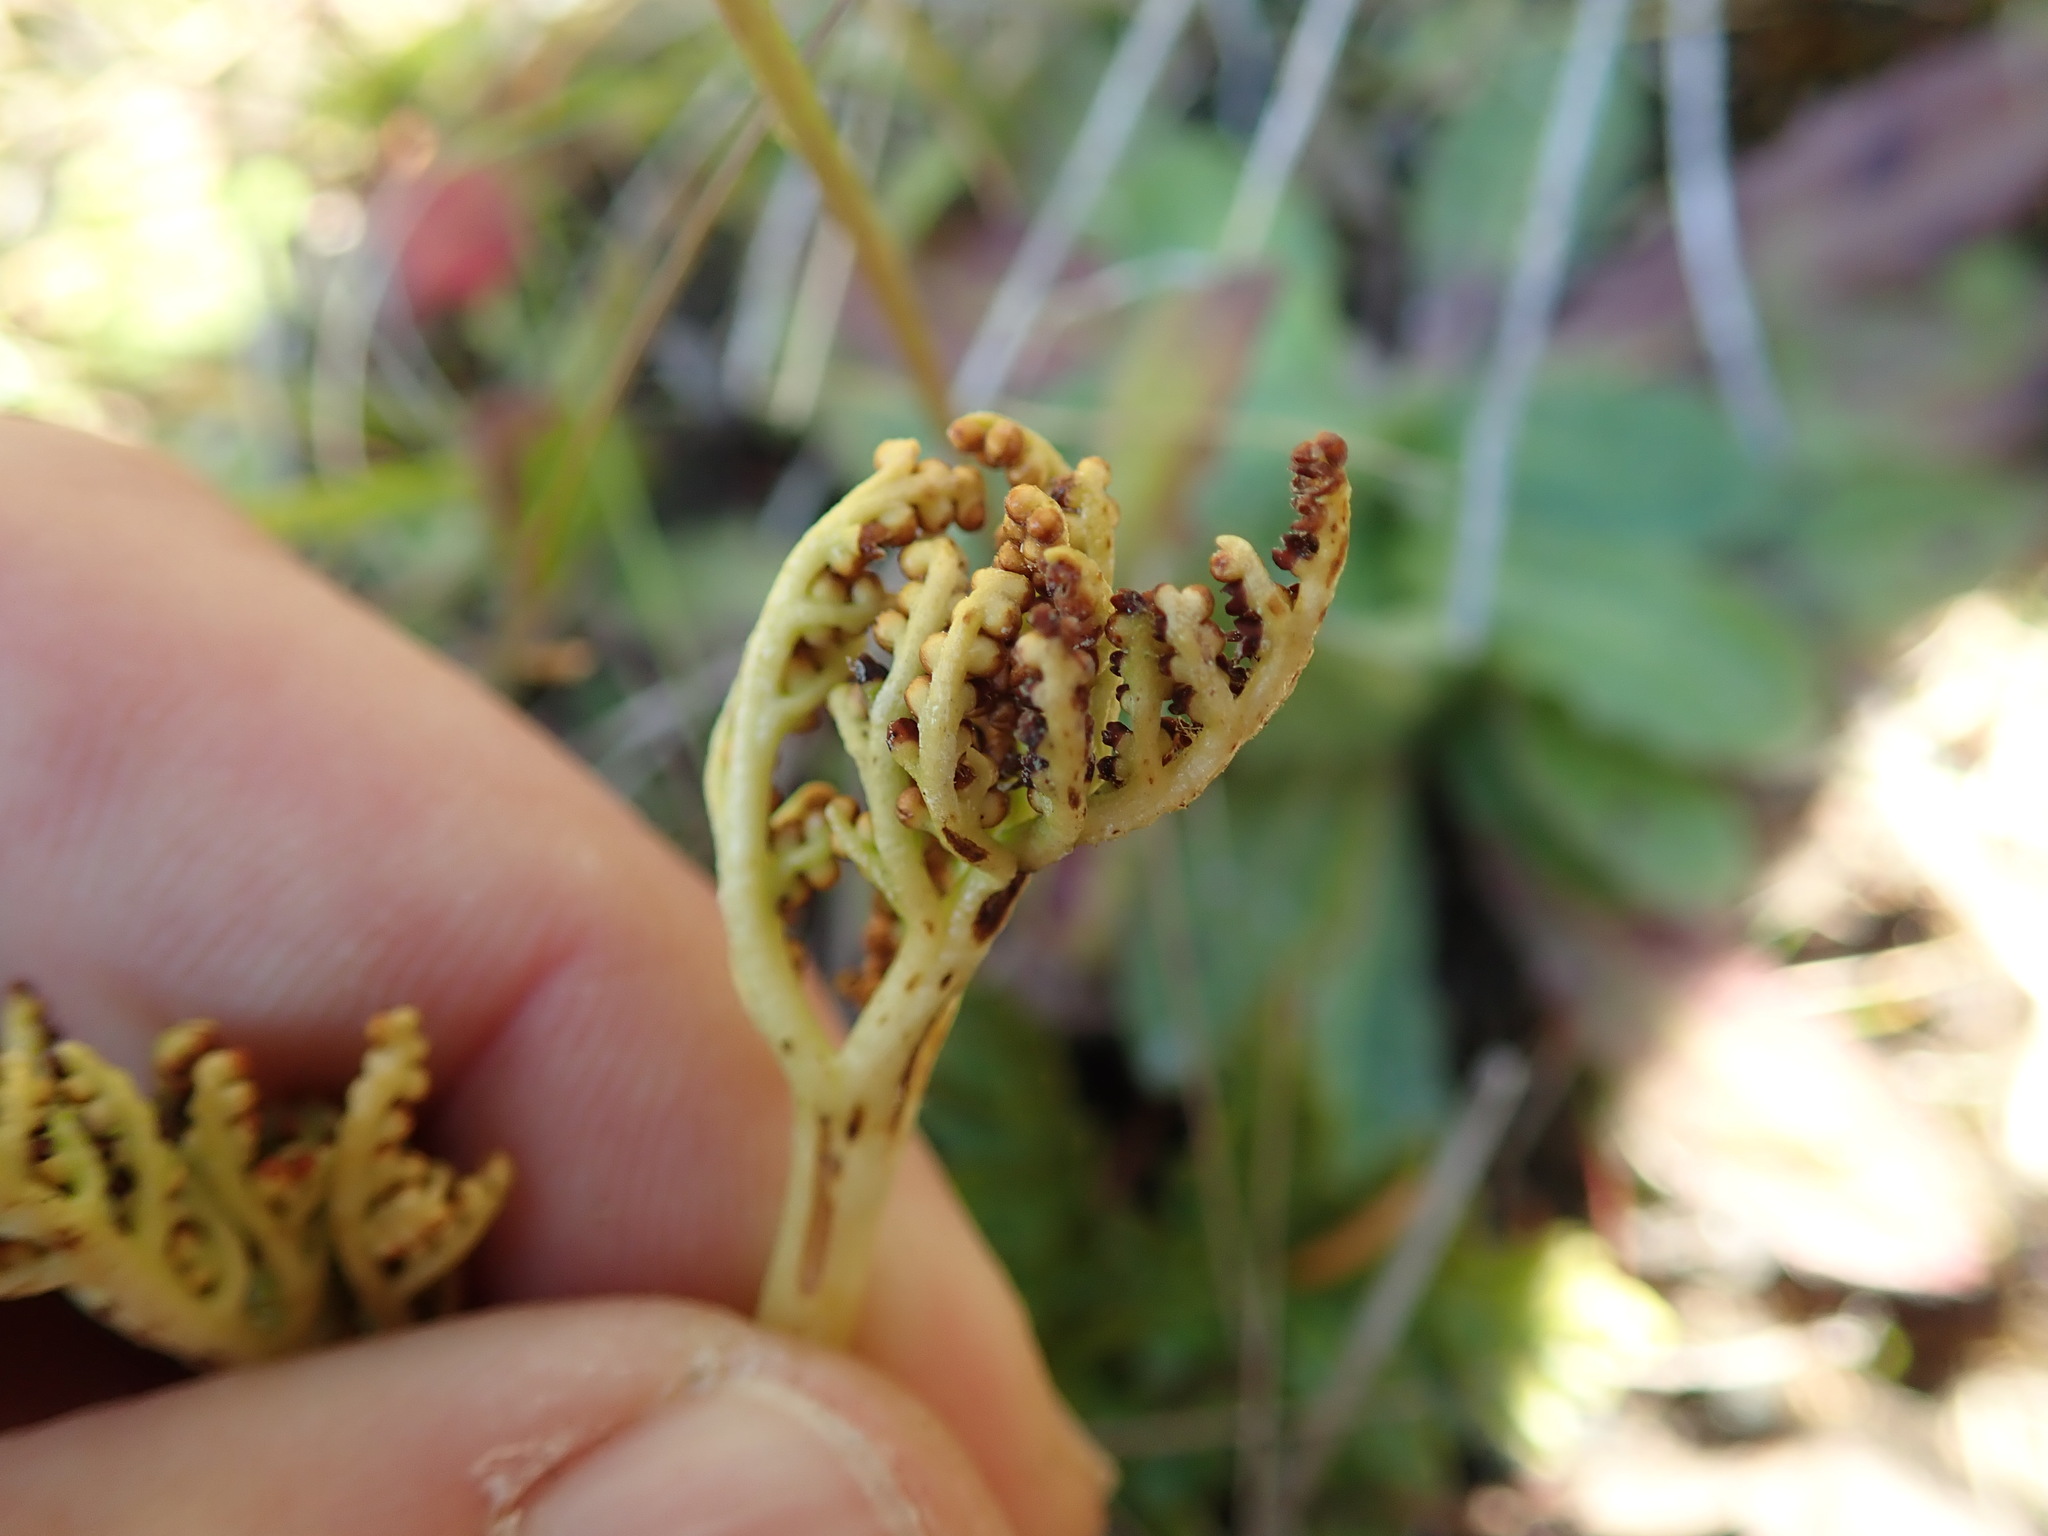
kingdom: Plantae
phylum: Tracheophyta
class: Polypodiopsida
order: Ophioglossales
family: Ophioglossaceae
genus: Sceptridium
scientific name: Sceptridium multifidum
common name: Leathery grape fern
